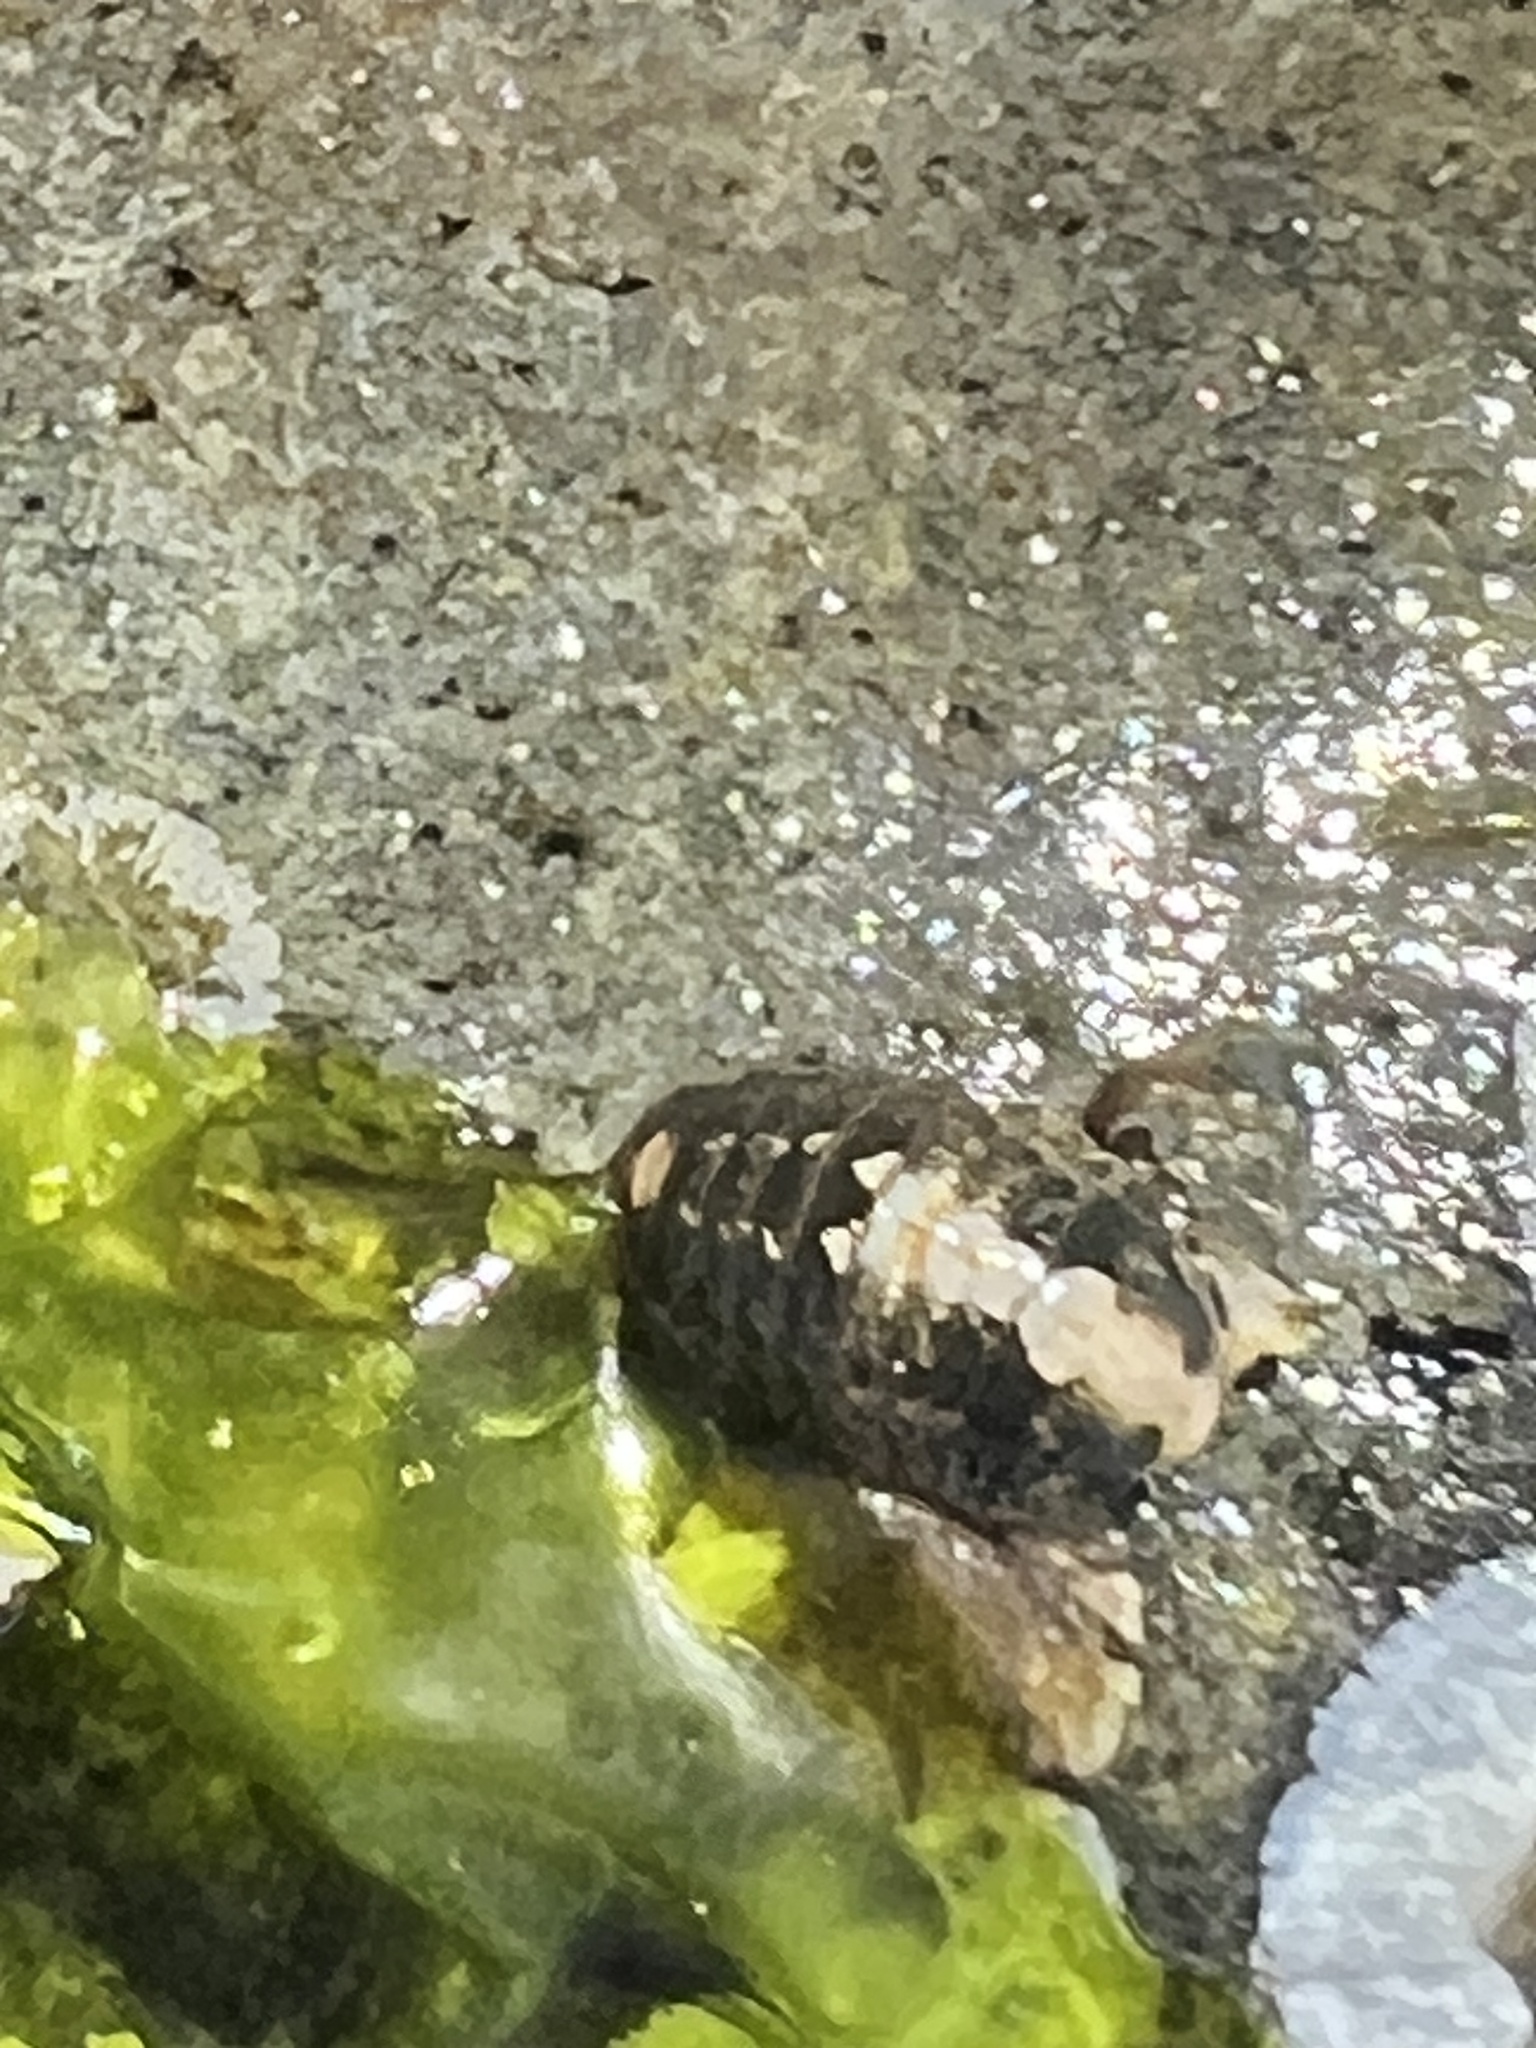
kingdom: Animalia
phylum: Arthropoda
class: Malacostraca
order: Isopoda
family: Sphaeromatidae
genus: Gnorimosphaeroma
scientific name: Gnorimosphaeroma oregonense
